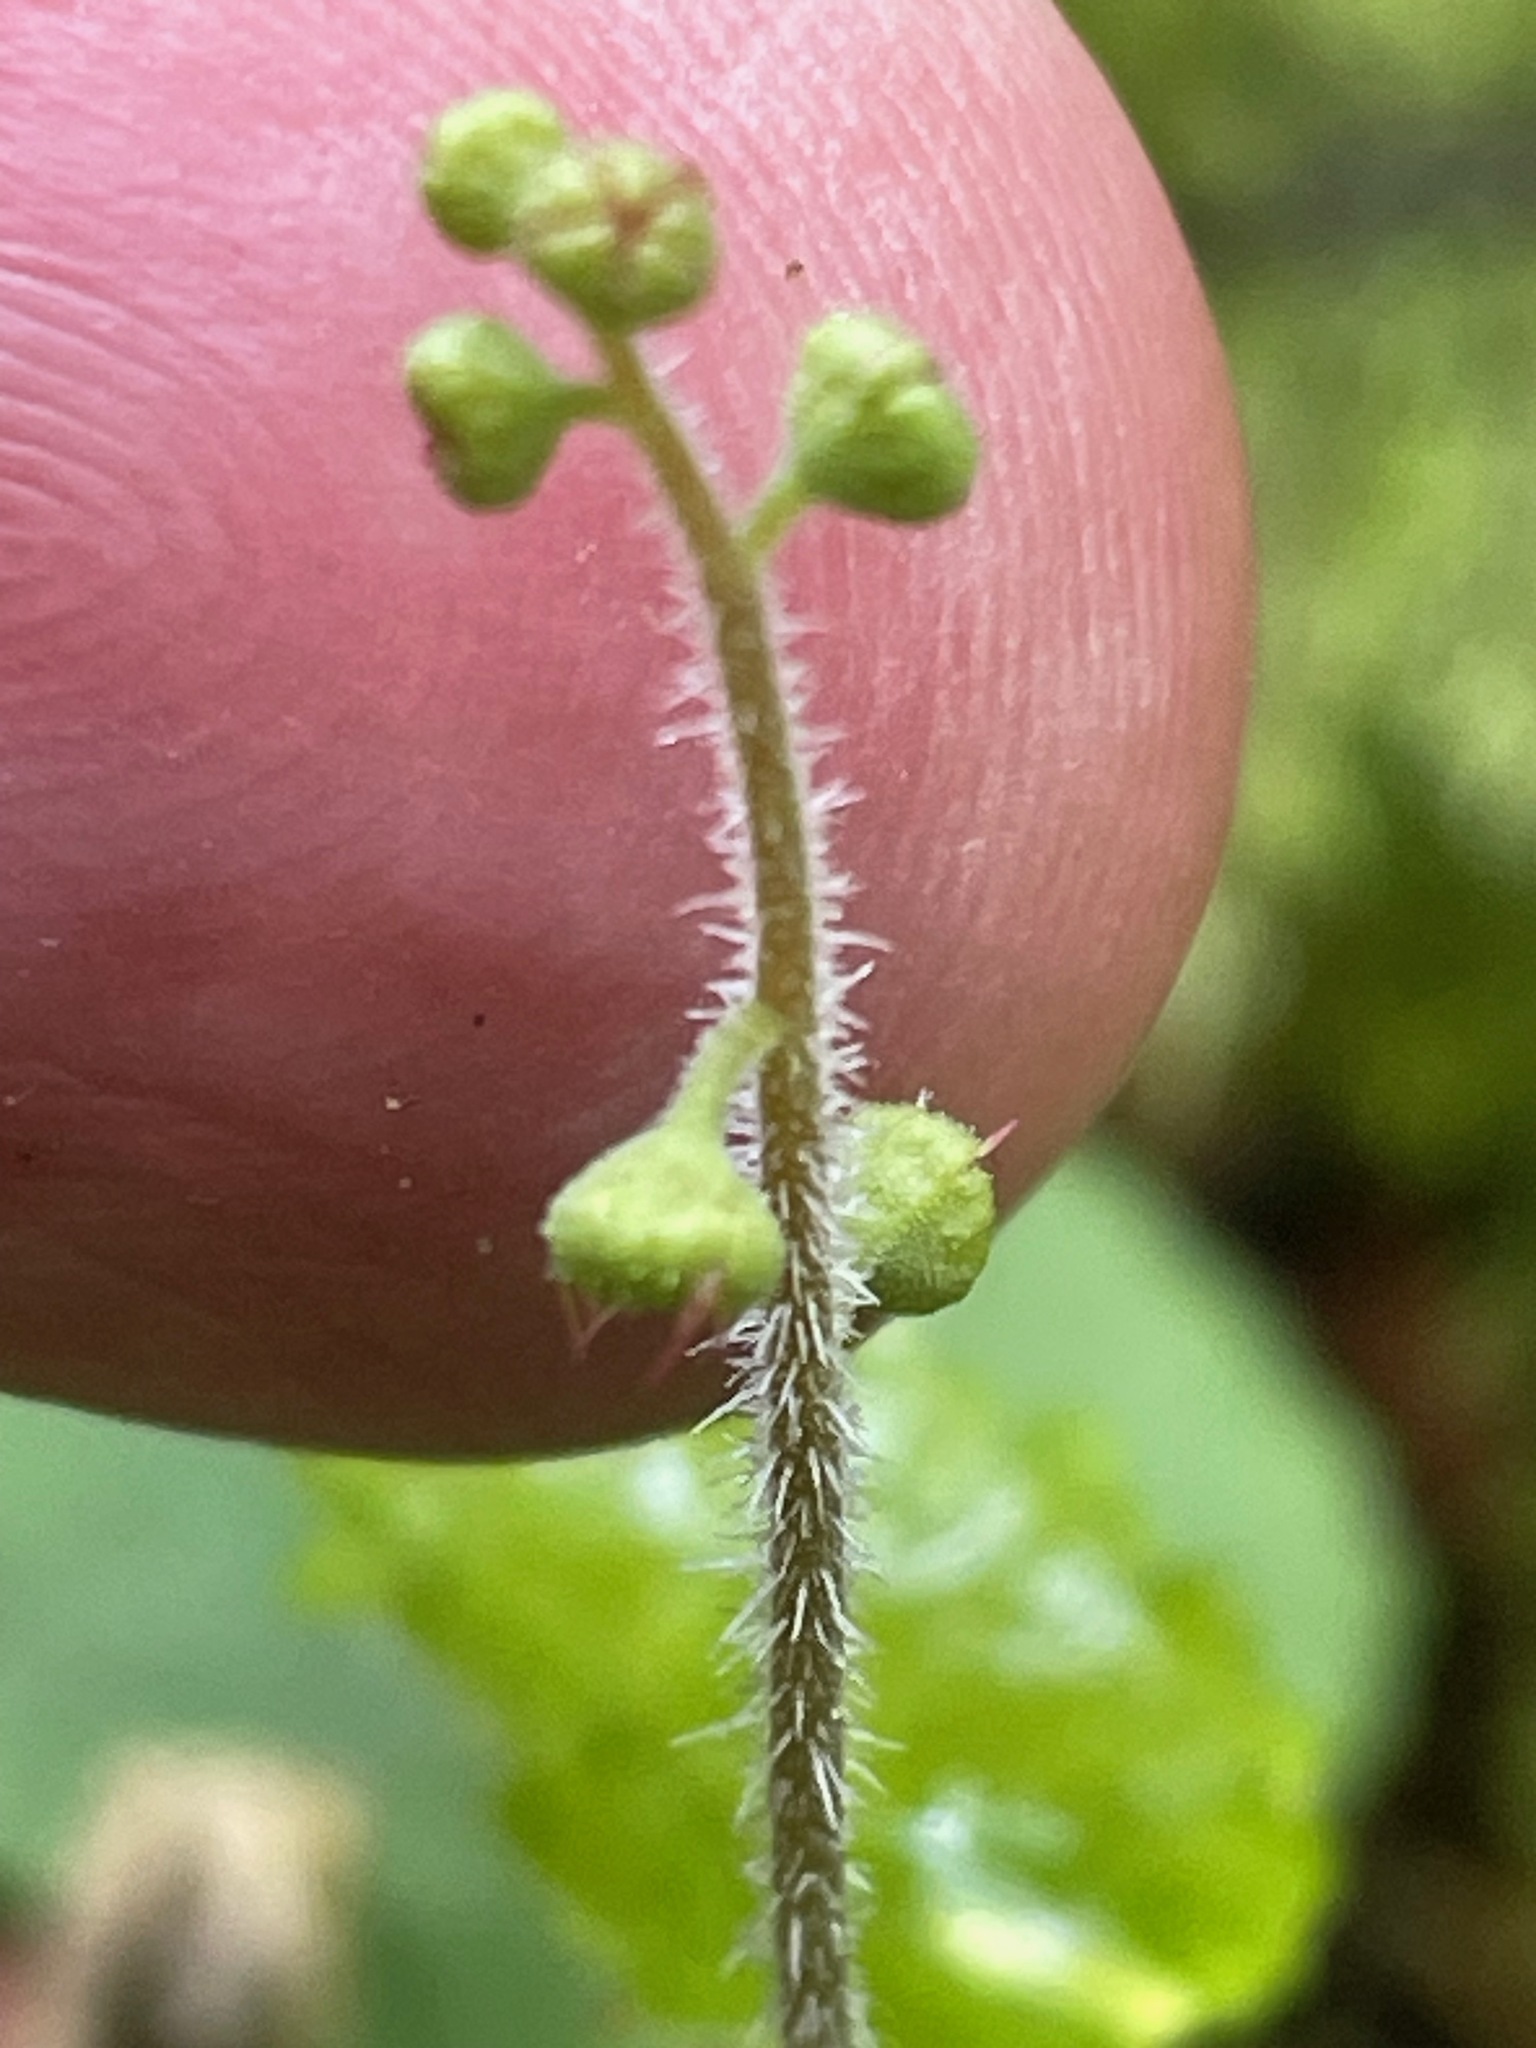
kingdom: Plantae
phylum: Tracheophyta
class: Magnoliopsida
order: Saxifragales
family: Saxifragaceae
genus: Mitella
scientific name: Mitella nuda
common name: Bare-stemmed bishop's-cap
